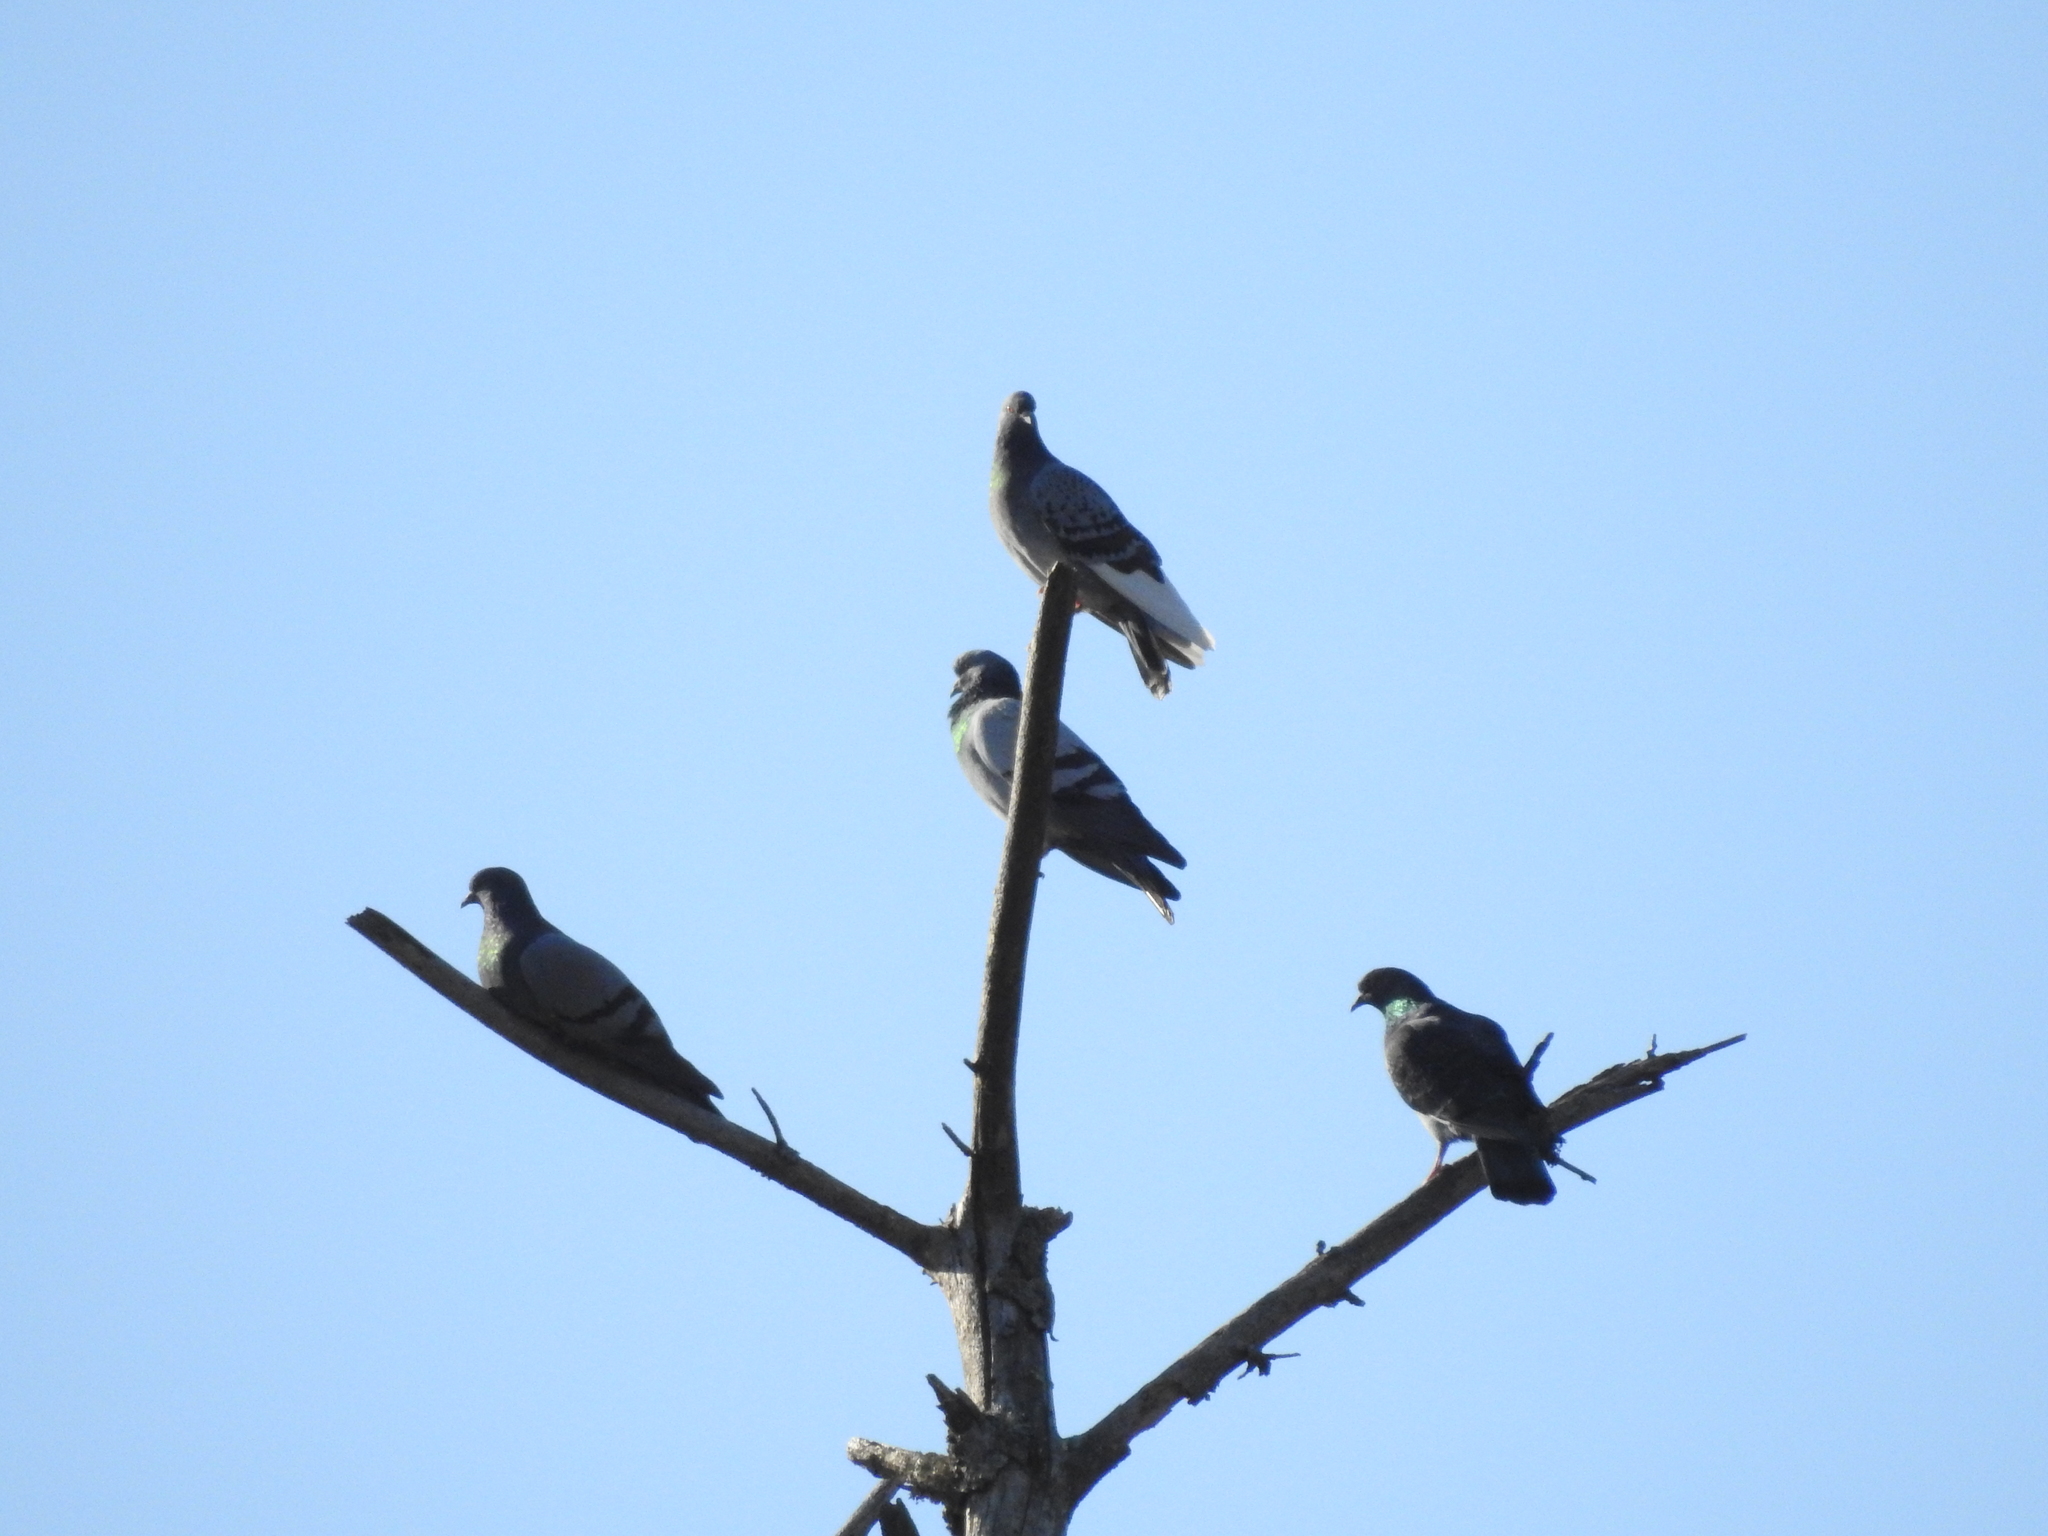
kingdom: Animalia
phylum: Chordata
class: Aves
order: Columbiformes
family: Columbidae
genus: Columba
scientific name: Columba livia
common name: Rock pigeon
